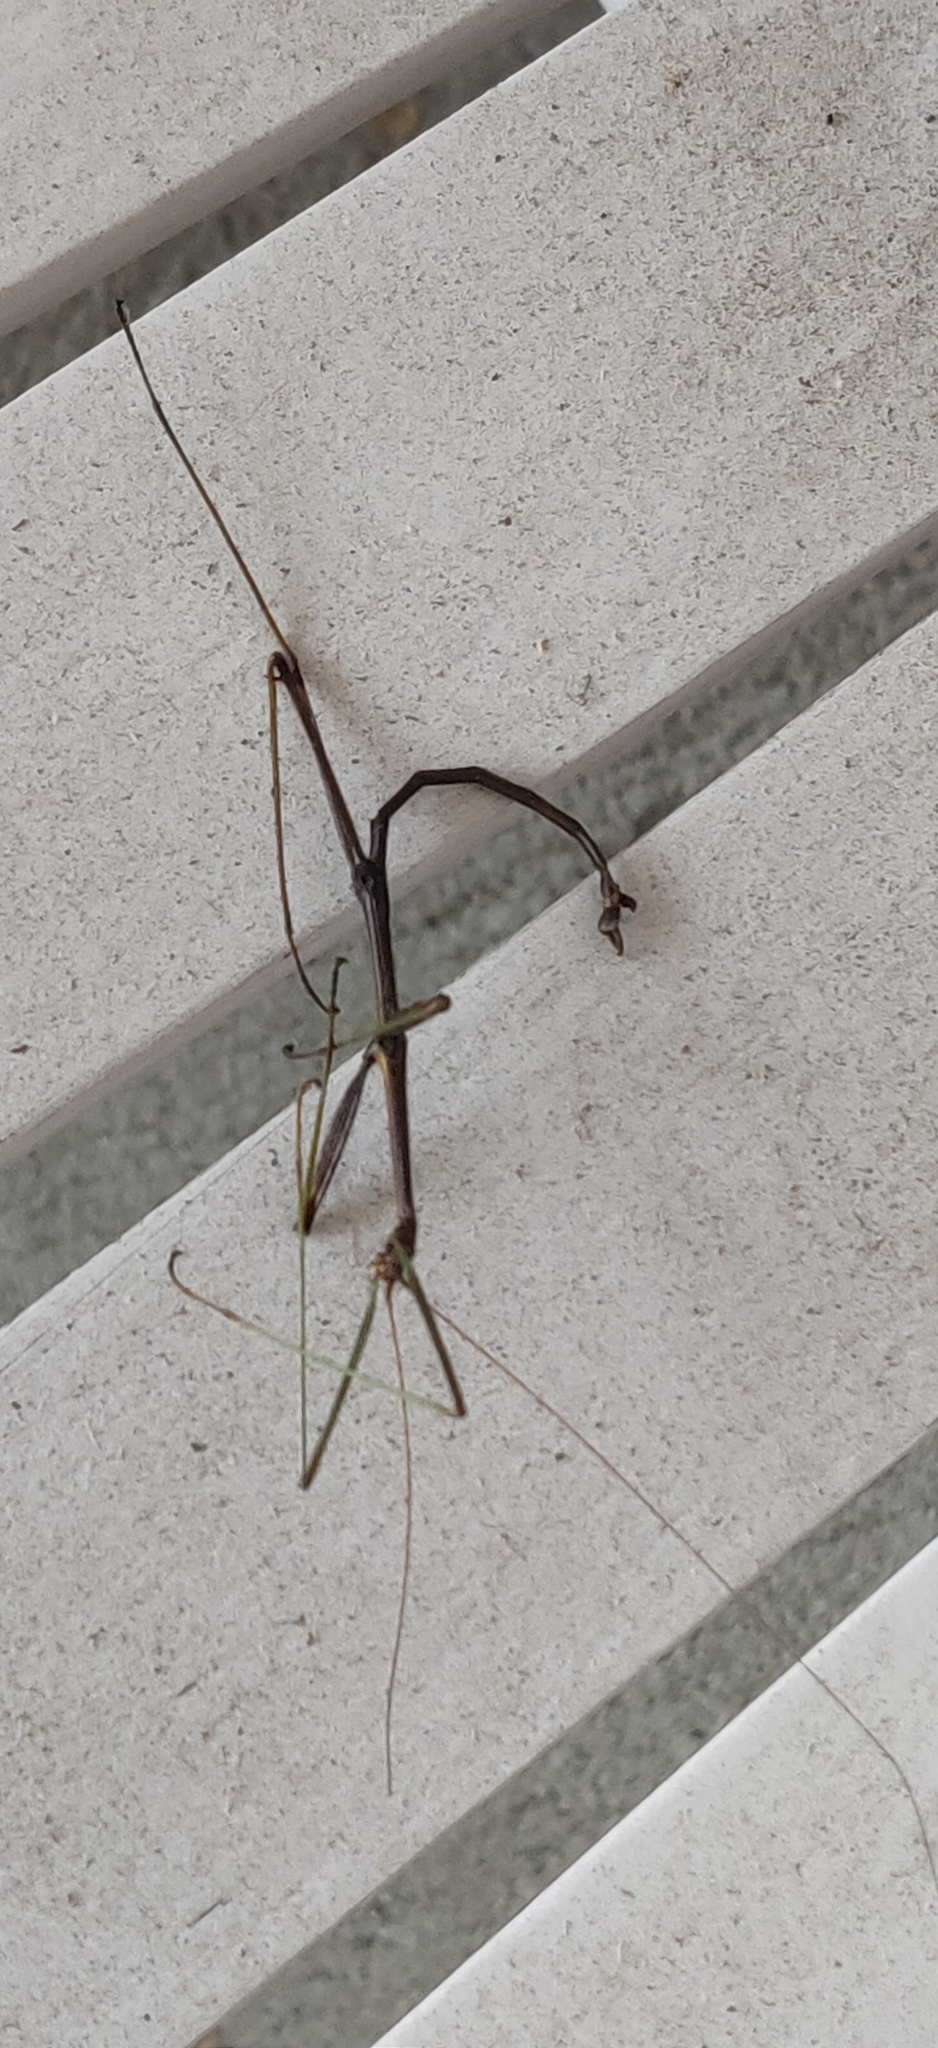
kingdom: Animalia
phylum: Arthropoda
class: Insecta
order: Phasmida
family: Diapheromeridae
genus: Diapheromera
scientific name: Diapheromera femorata
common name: Common american walkingstick
